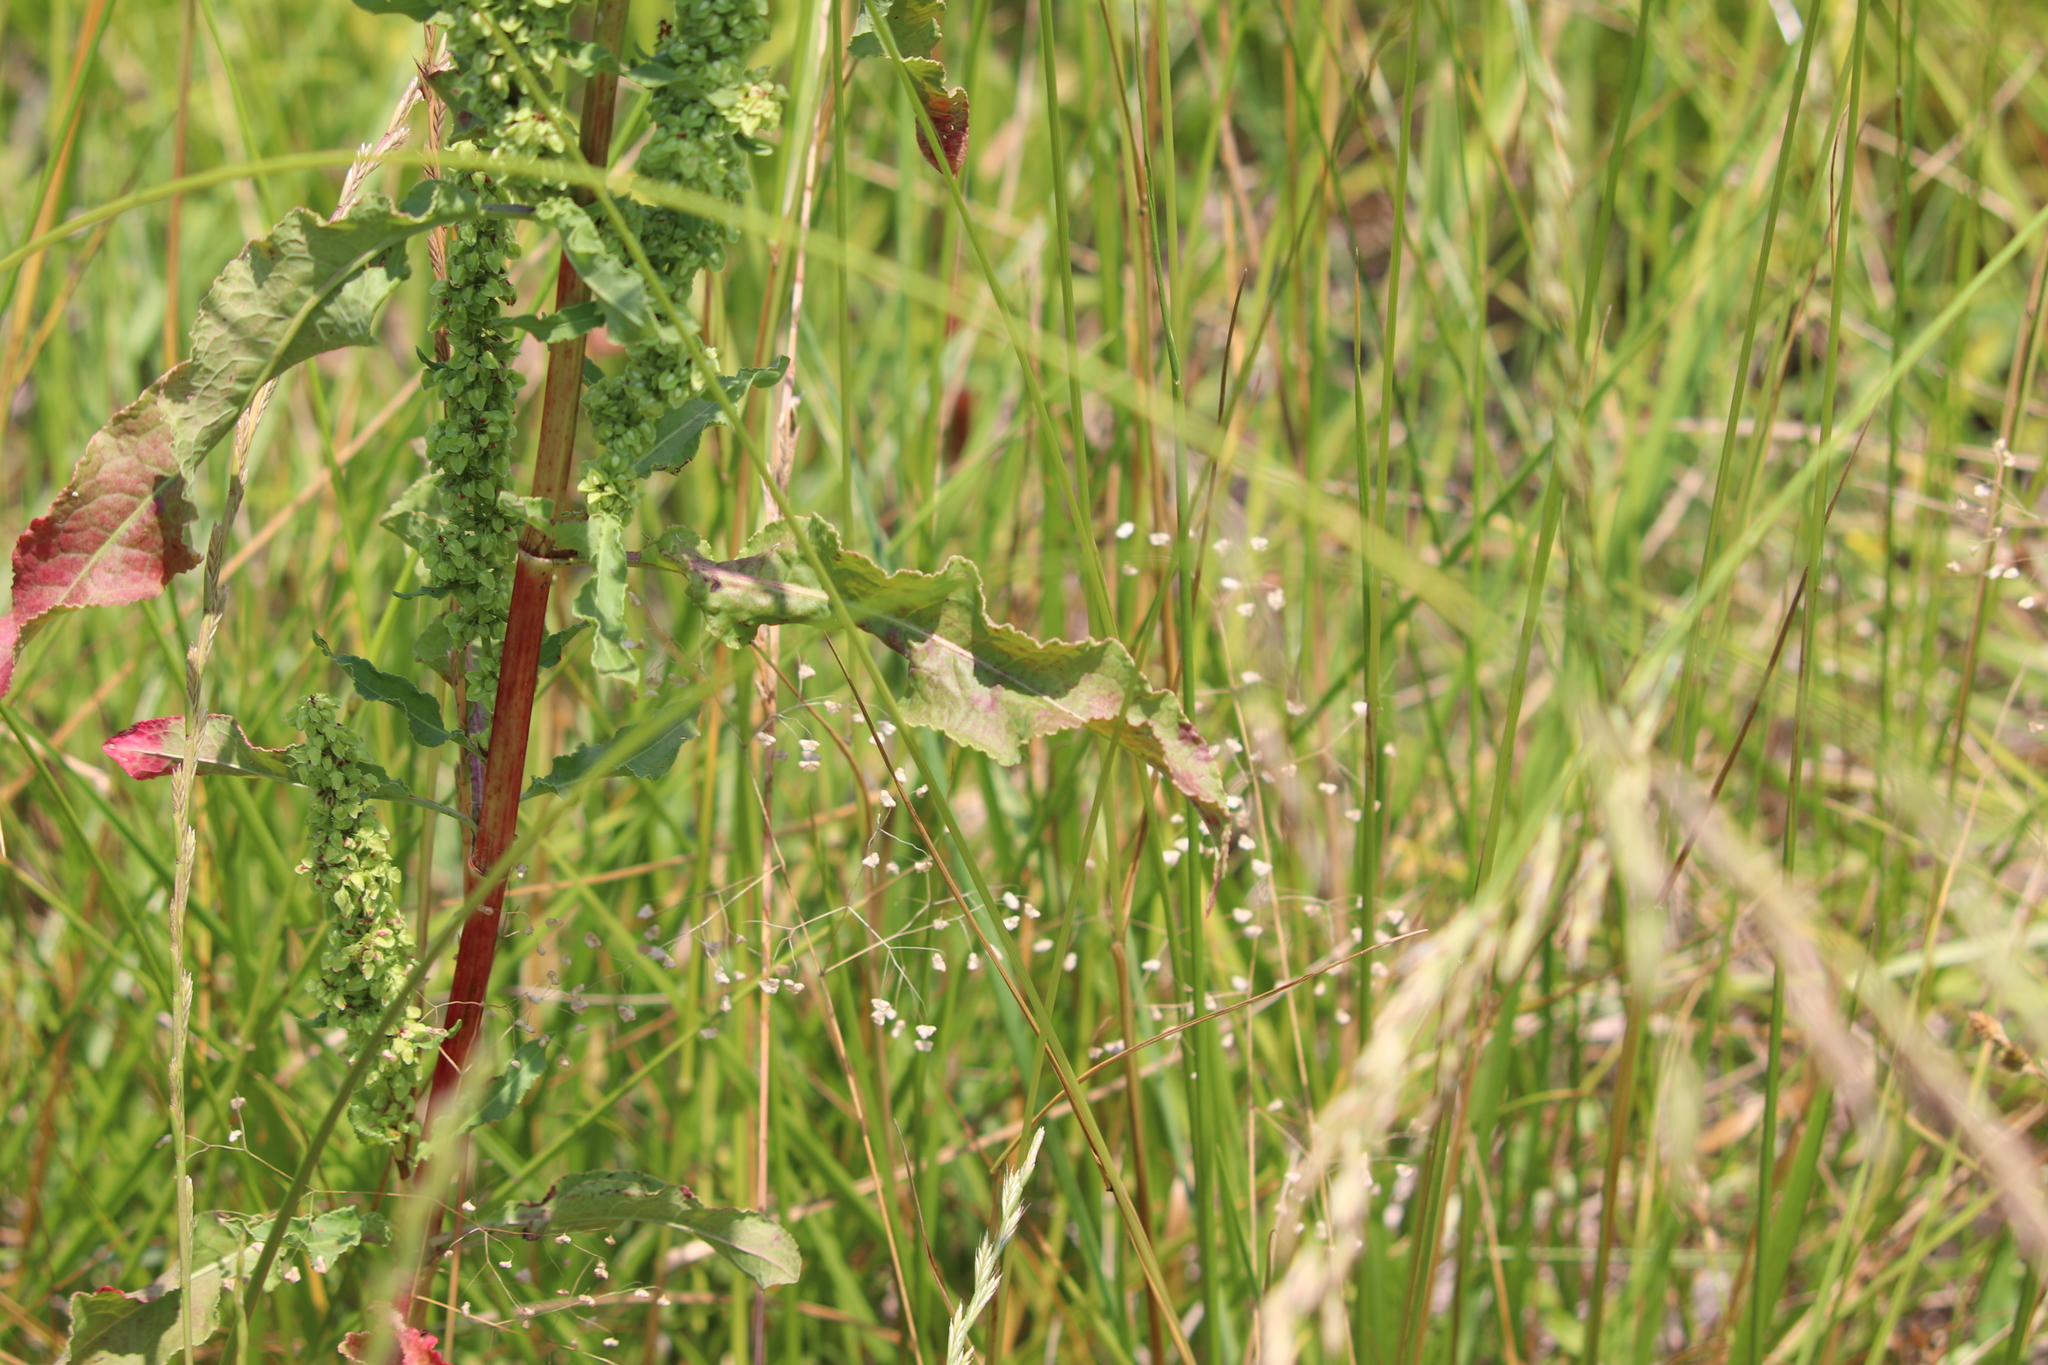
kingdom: Plantae
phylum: Tracheophyta
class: Magnoliopsida
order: Caryophyllales
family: Polygonaceae
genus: Rumex
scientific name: Rumex crispus
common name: Curled dock
